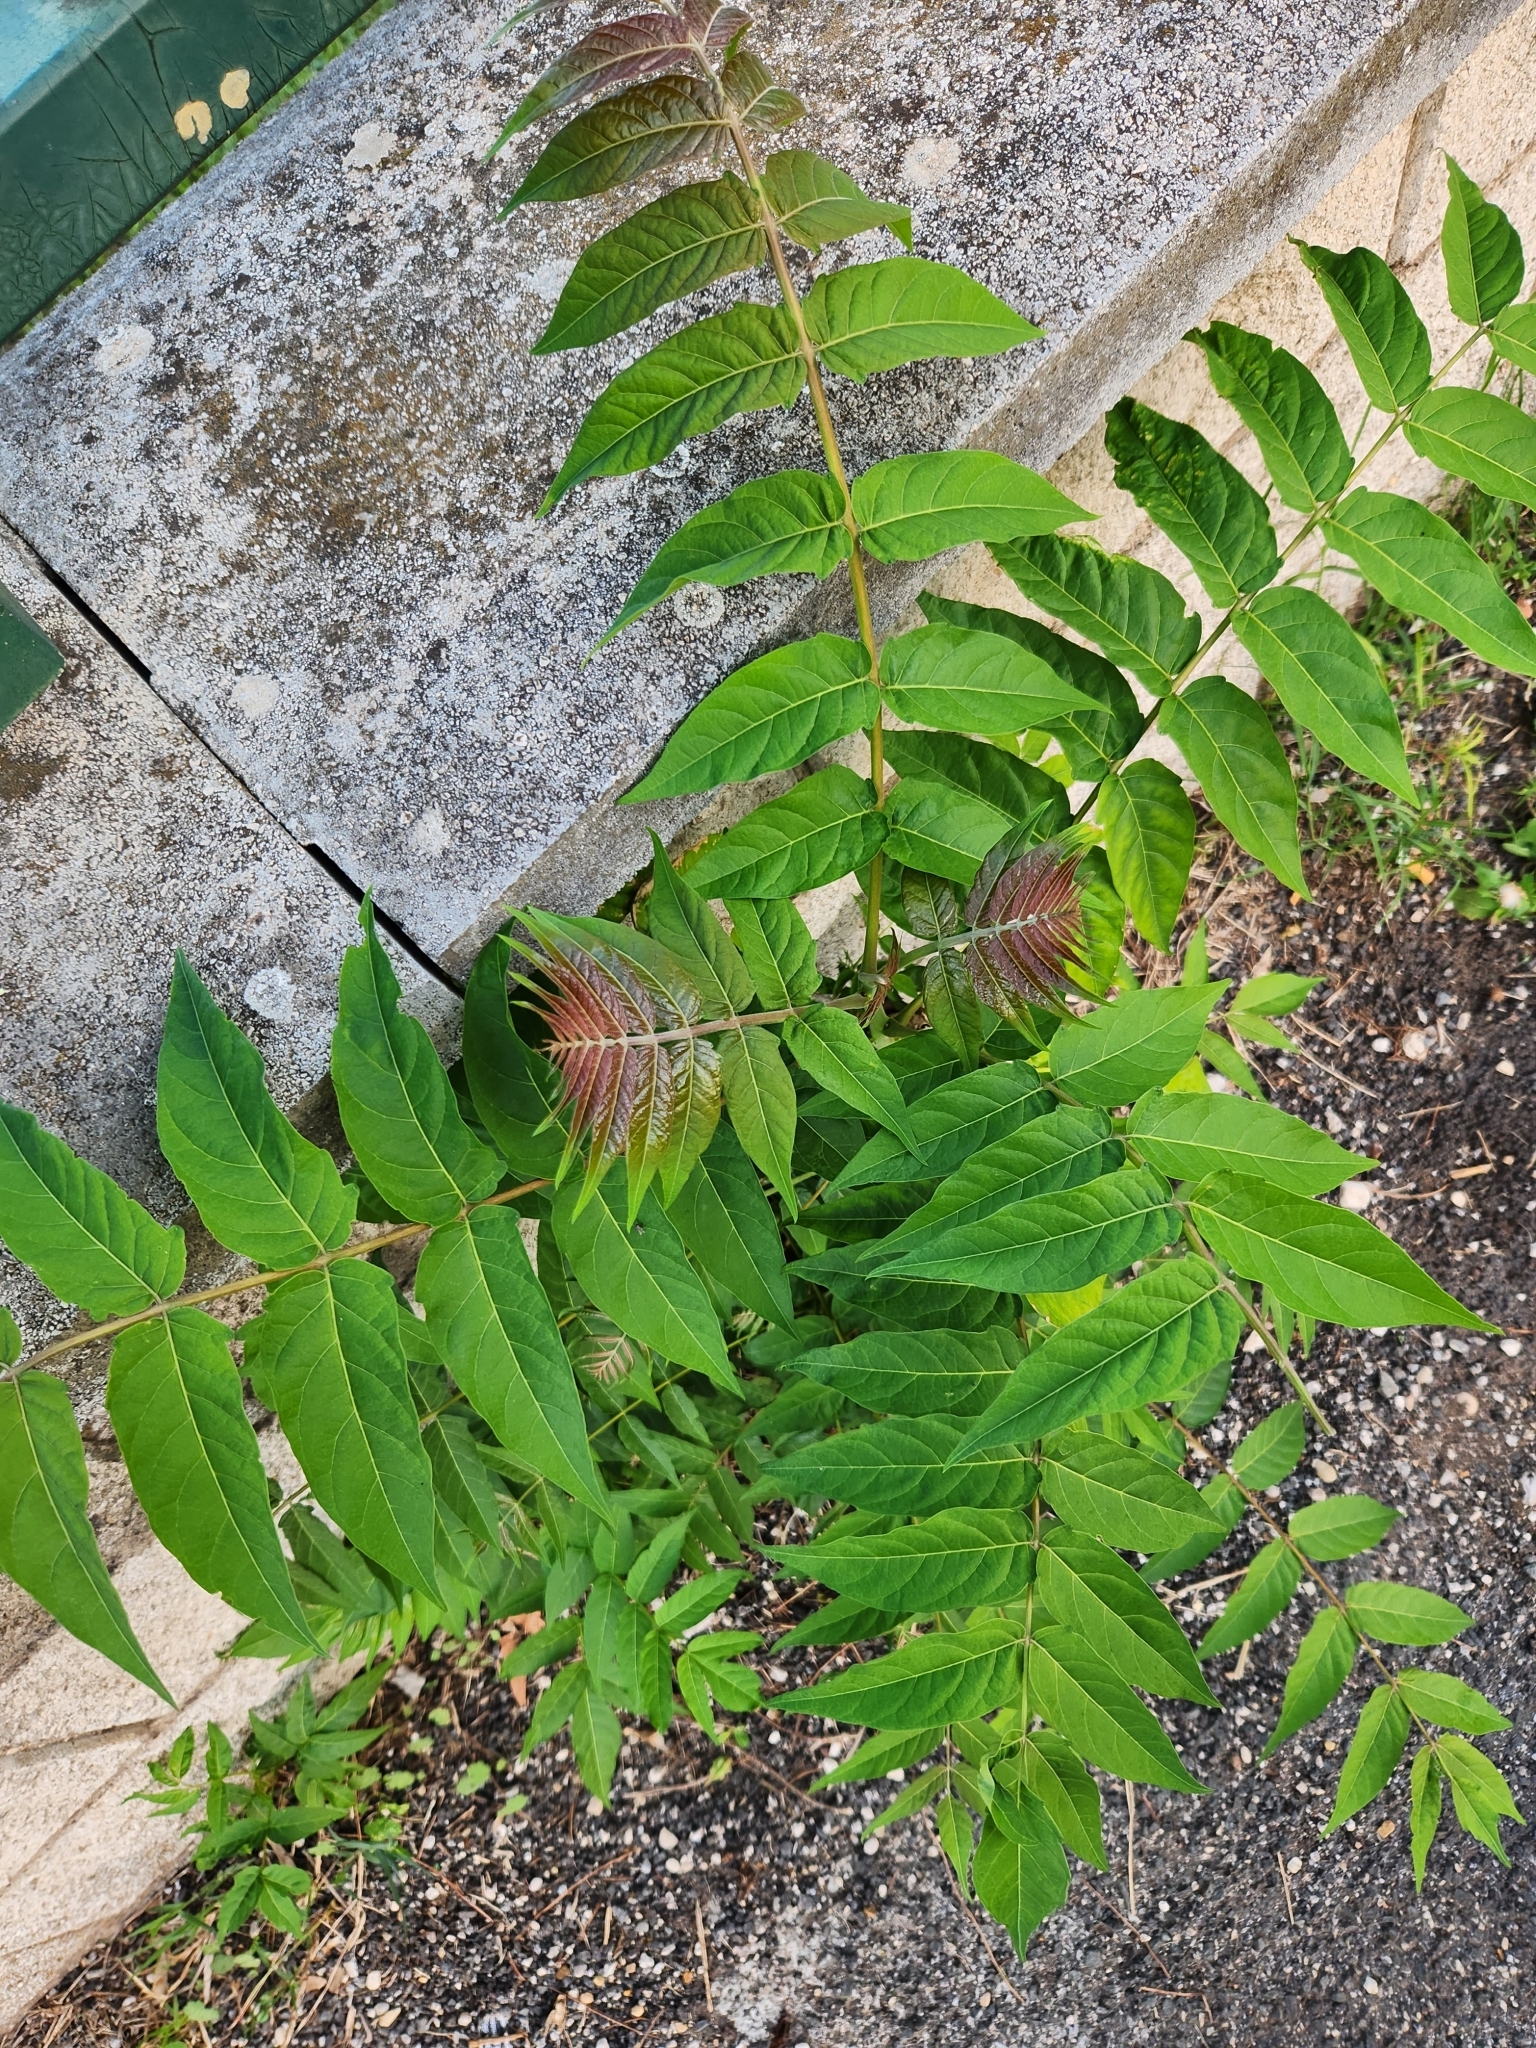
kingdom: Plantae
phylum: Tracheophyta
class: Magnoliopsida
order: Sapindales
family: Simaroubaceae
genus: Ailanthus
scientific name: Ailanthus altissima
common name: Tree-of-heaven
